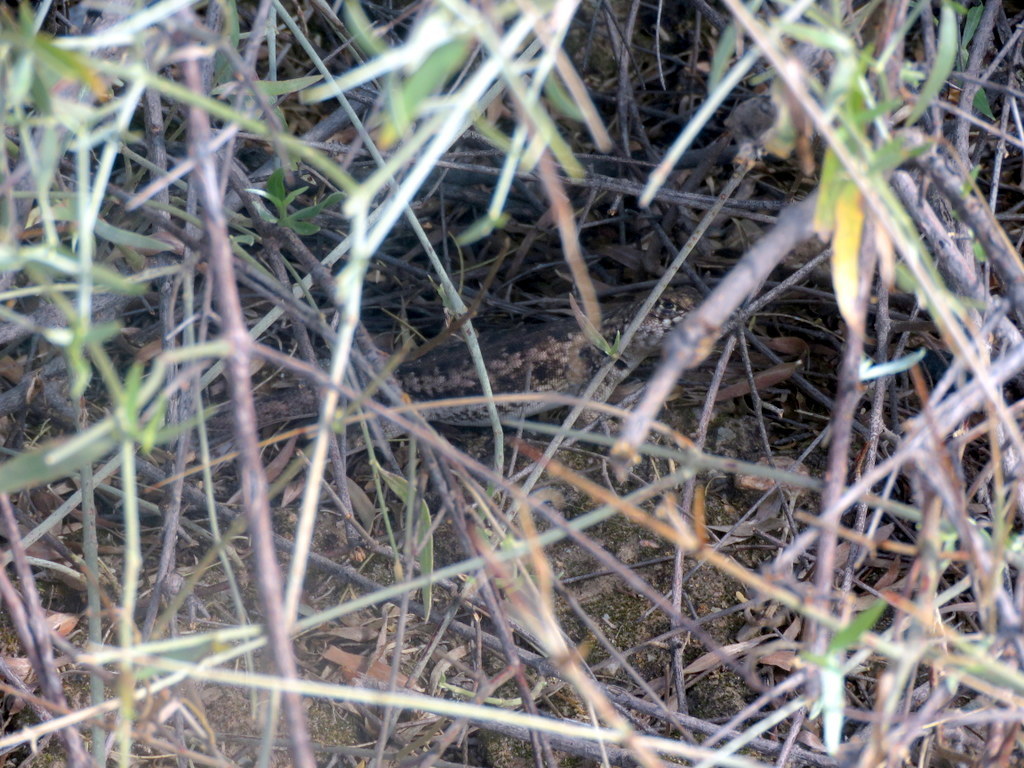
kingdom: Animalia
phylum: Chordata
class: Squamata
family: Tropiduridae
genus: Tropidurus
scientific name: Tropidurus etheridgei
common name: Etheridge's lava lizard
